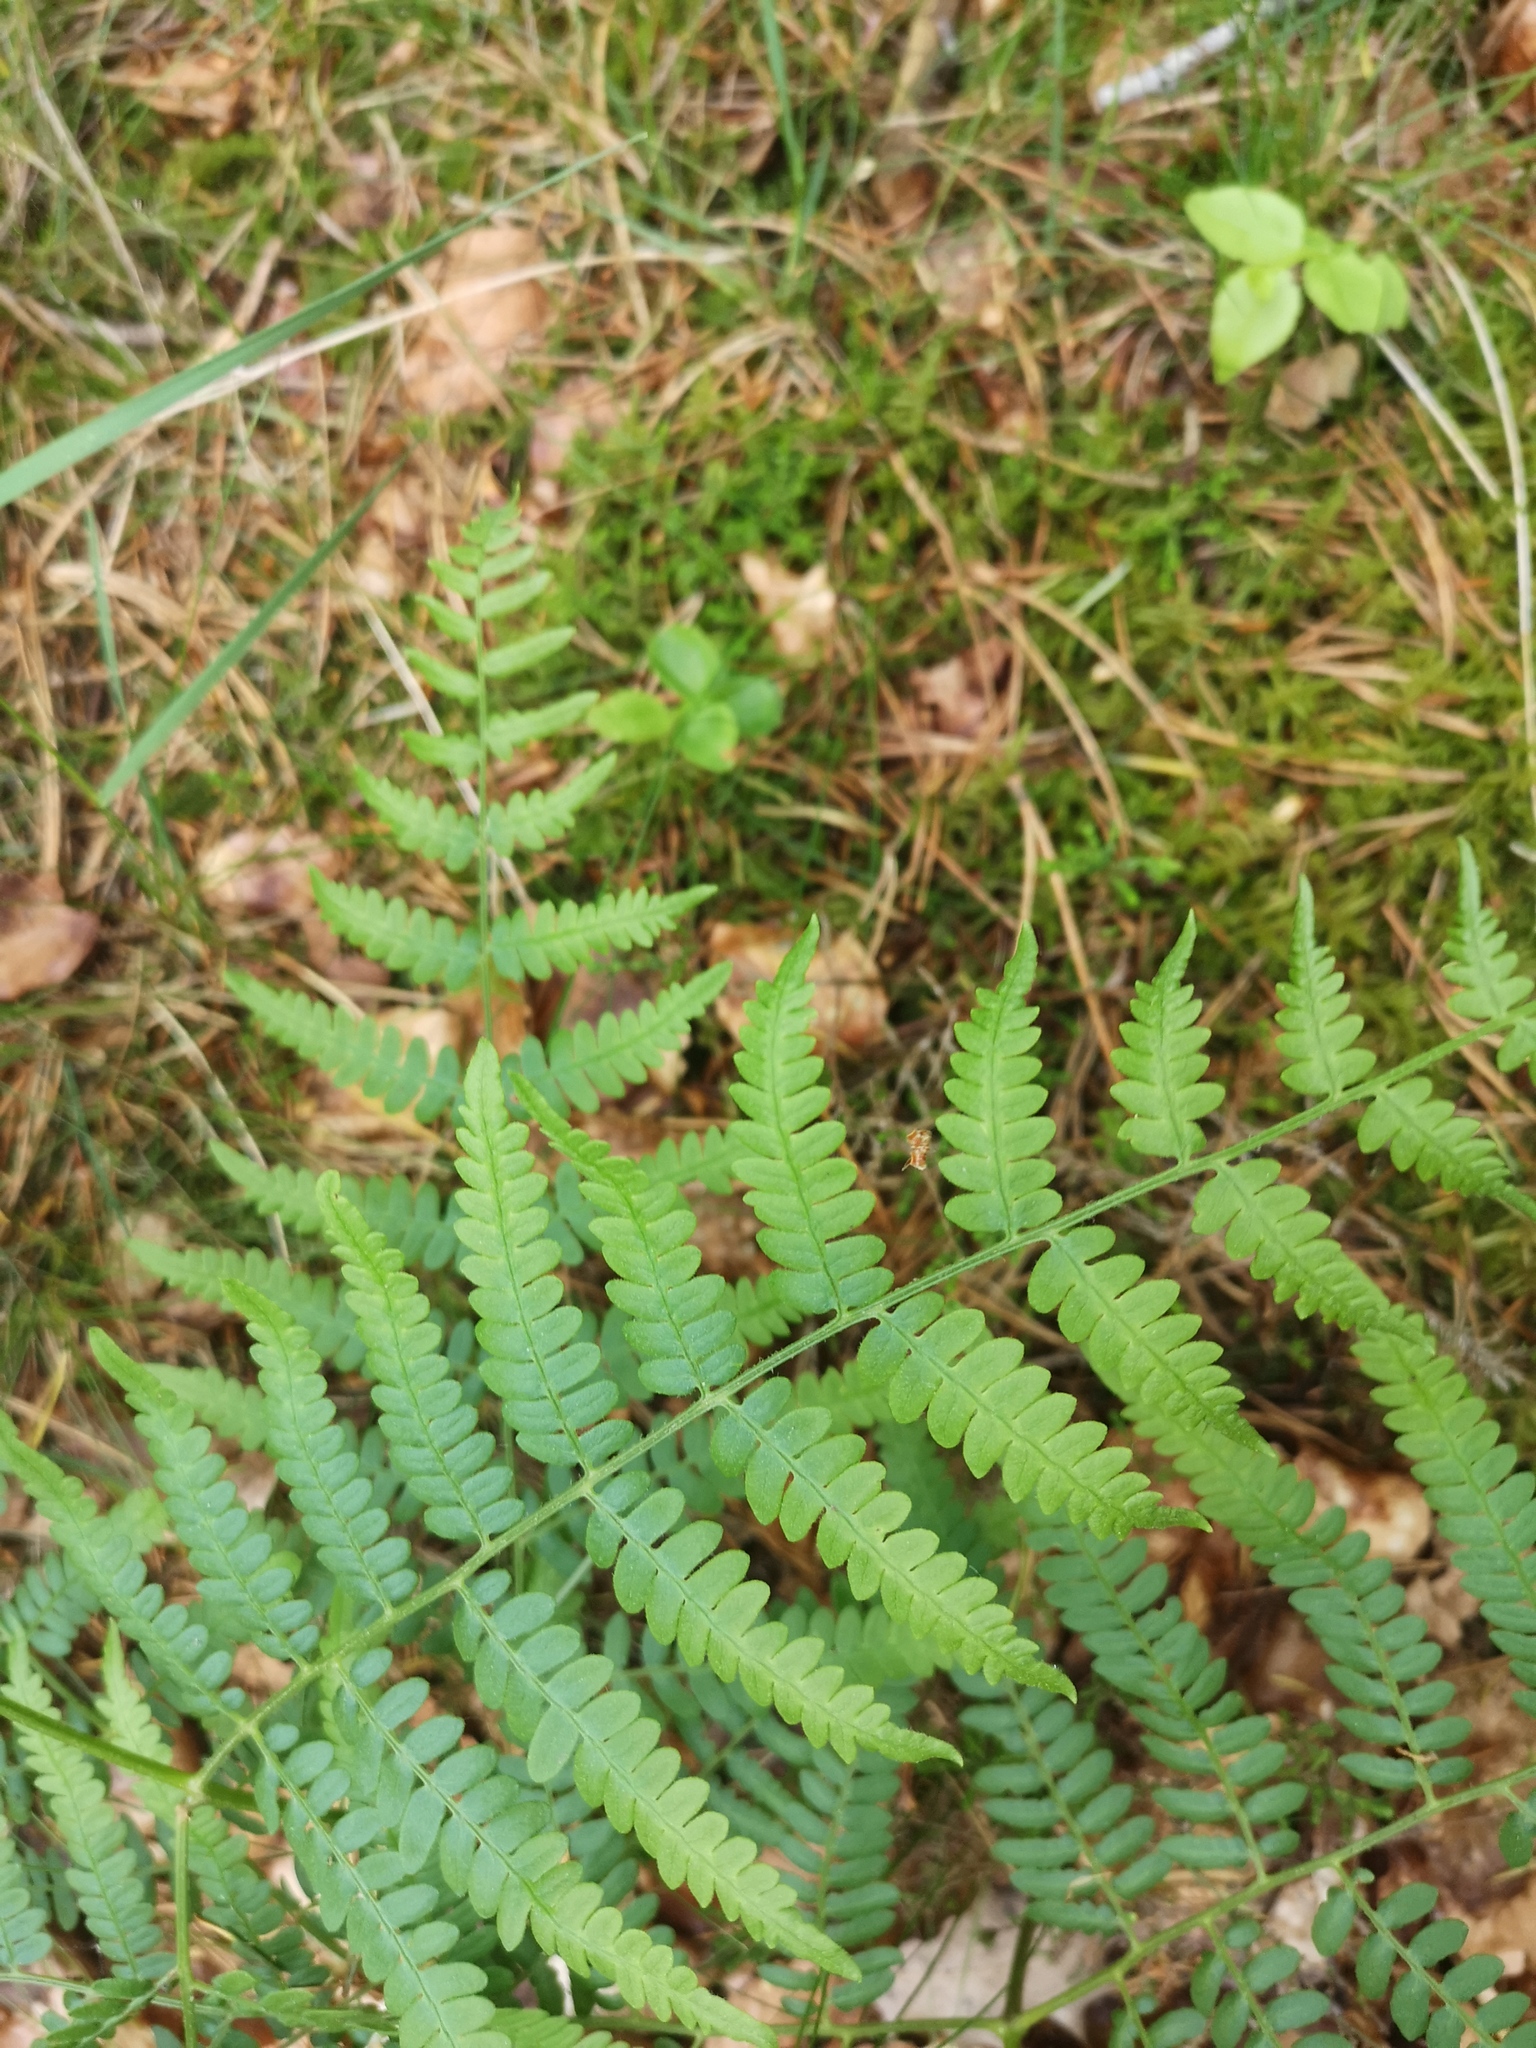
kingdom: Plantae
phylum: Tracheophyta
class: Polypodiopsida
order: Polypodiales
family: Dennstaedtiaceae
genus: Pteridium
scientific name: Pteridium aquilinum
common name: Bracken
